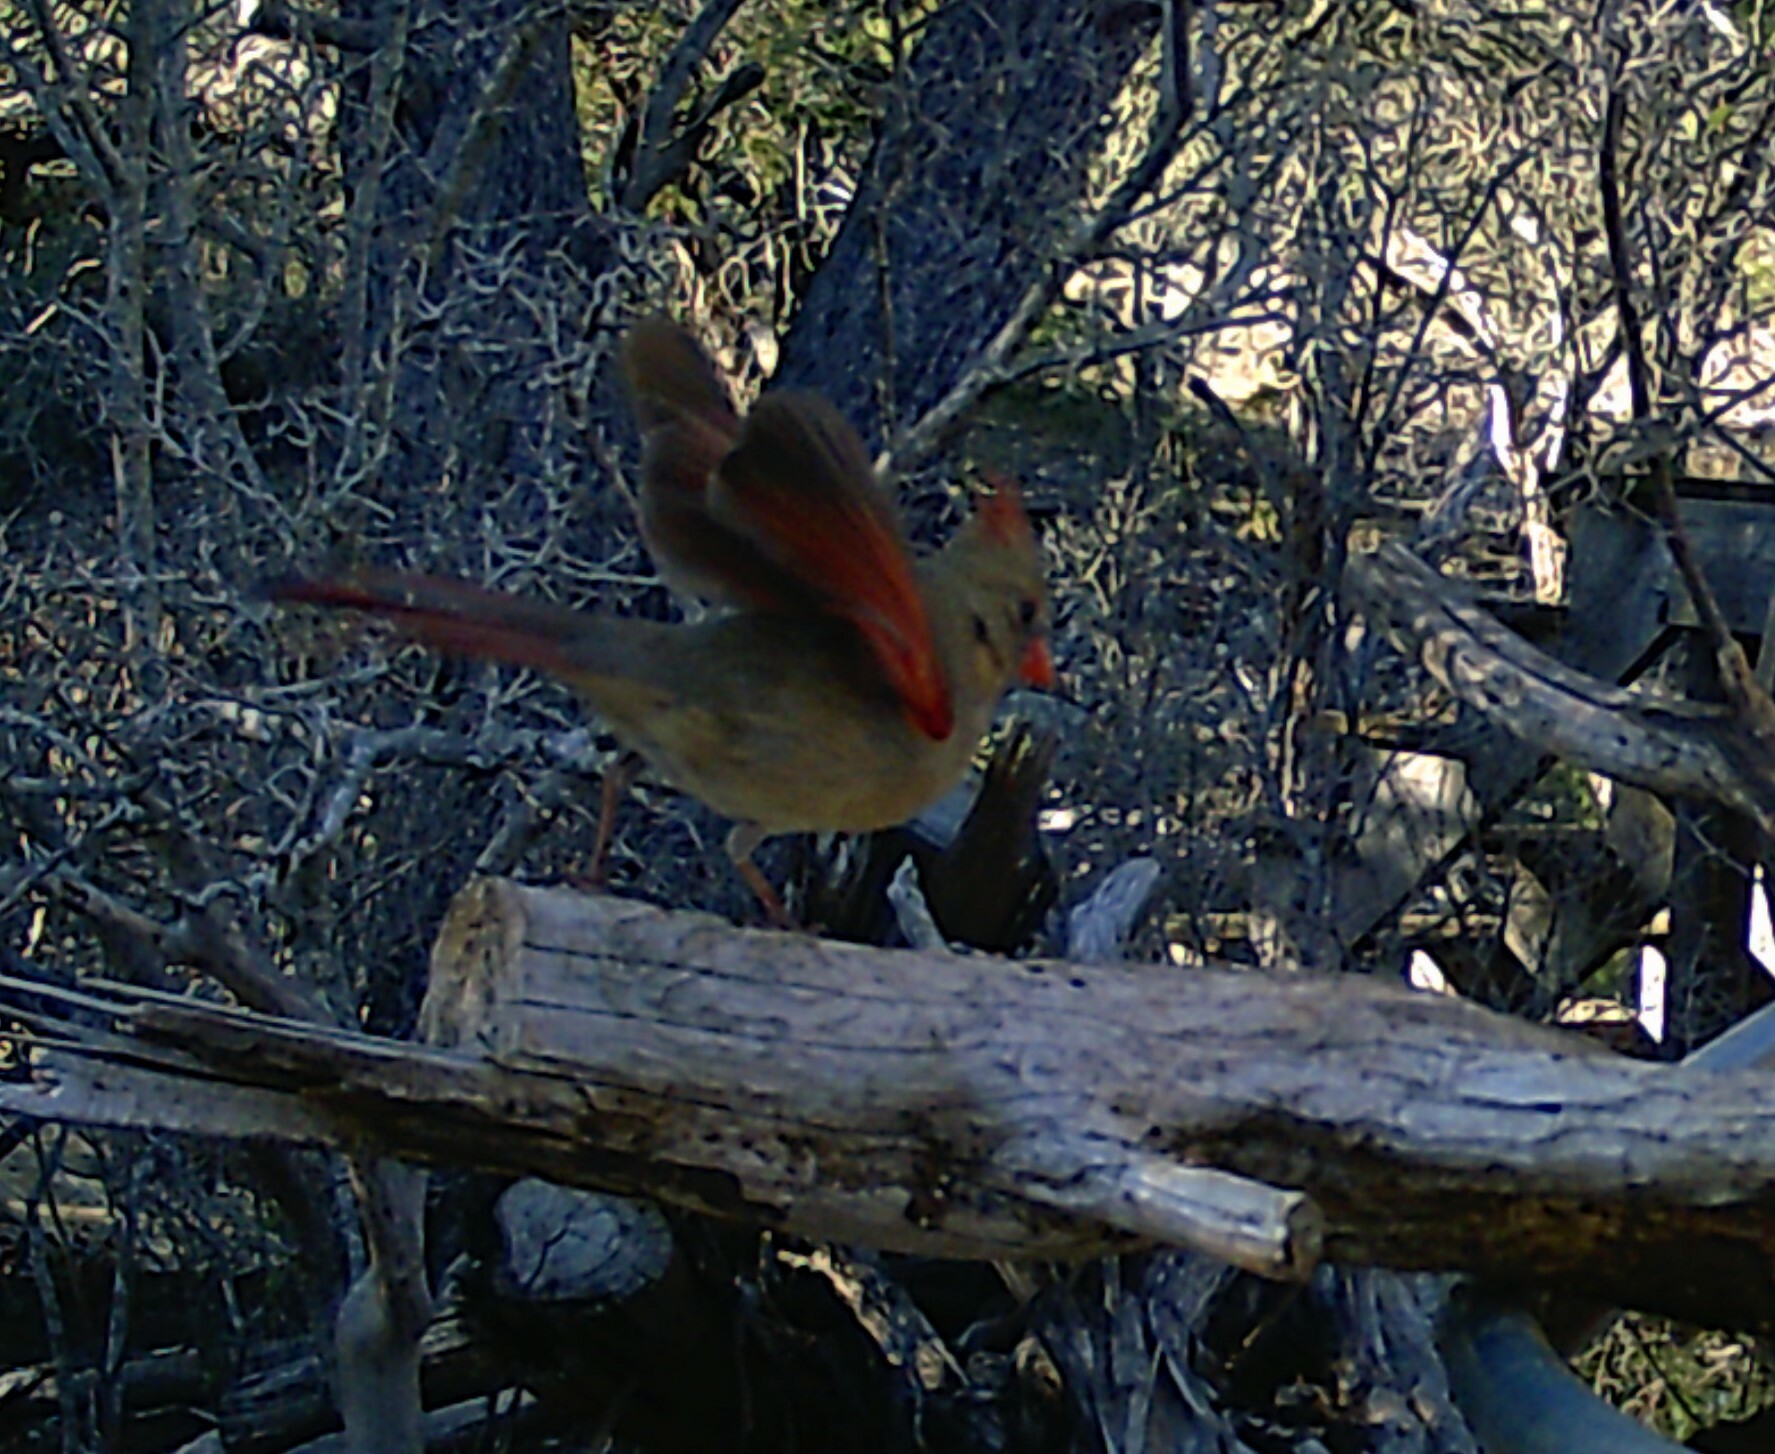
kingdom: Animalia
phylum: Chordata
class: Aves
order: Passeriformes
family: Cardinalidae
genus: Cardinalis
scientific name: Cardinalis cardinalis
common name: Northern cardinal
